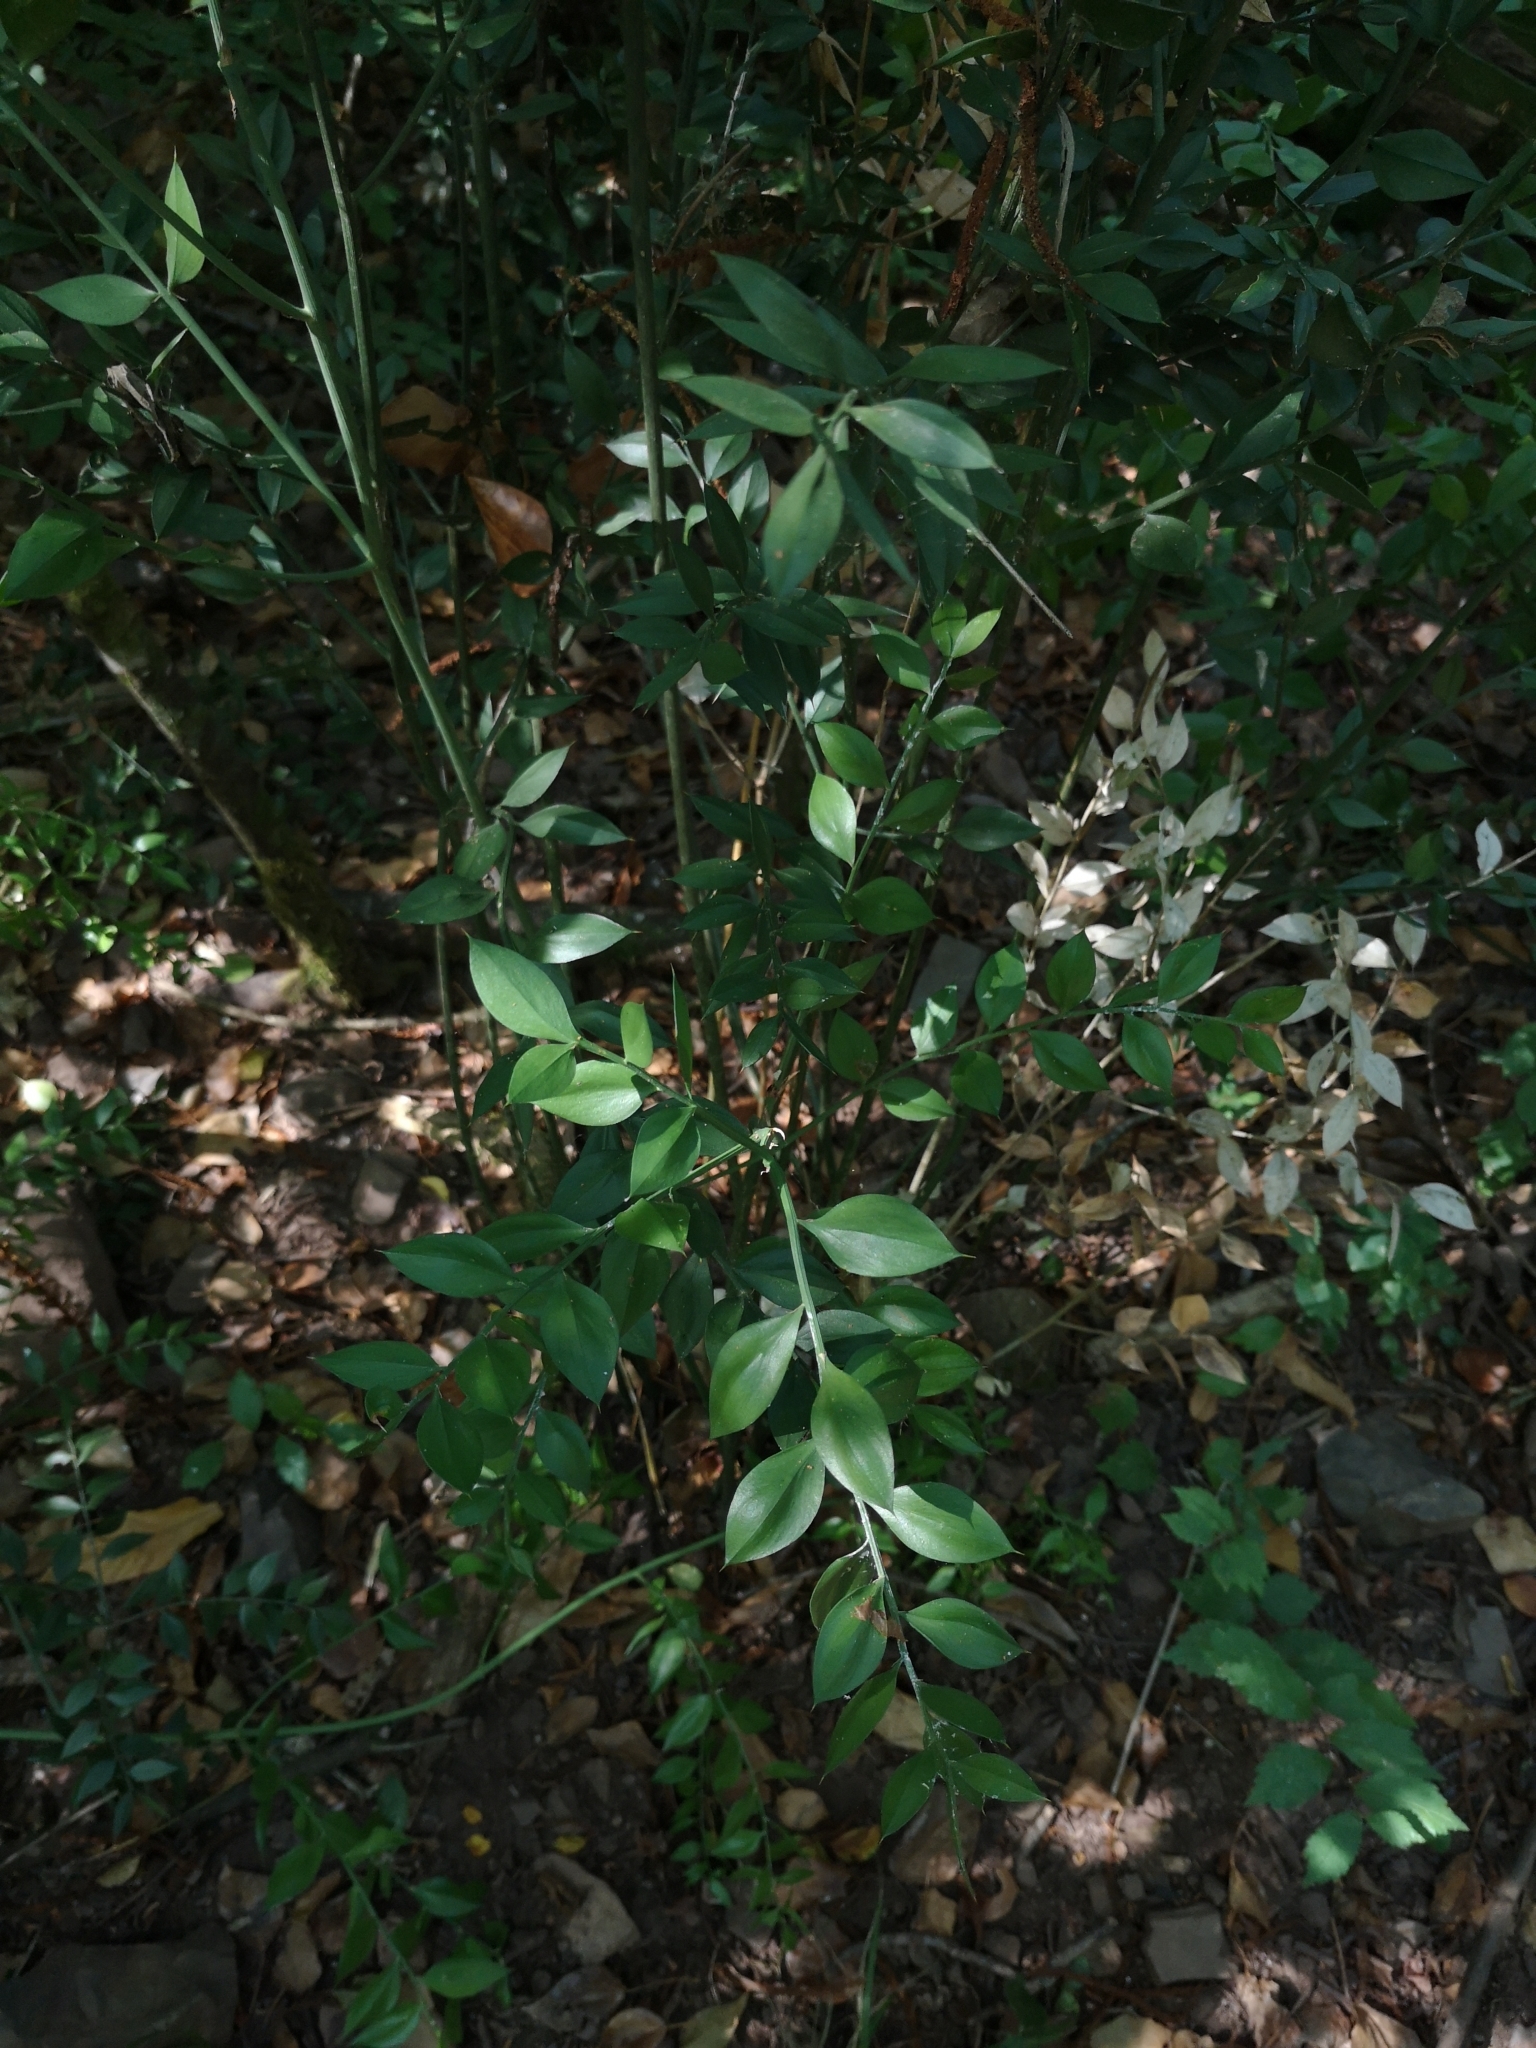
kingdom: Plantae
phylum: Tracheophyta
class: Liliopsida
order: Asparagales
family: Asparagaceae
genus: Ruscus
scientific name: Ruscus aculeatus
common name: Butcher's-broom
